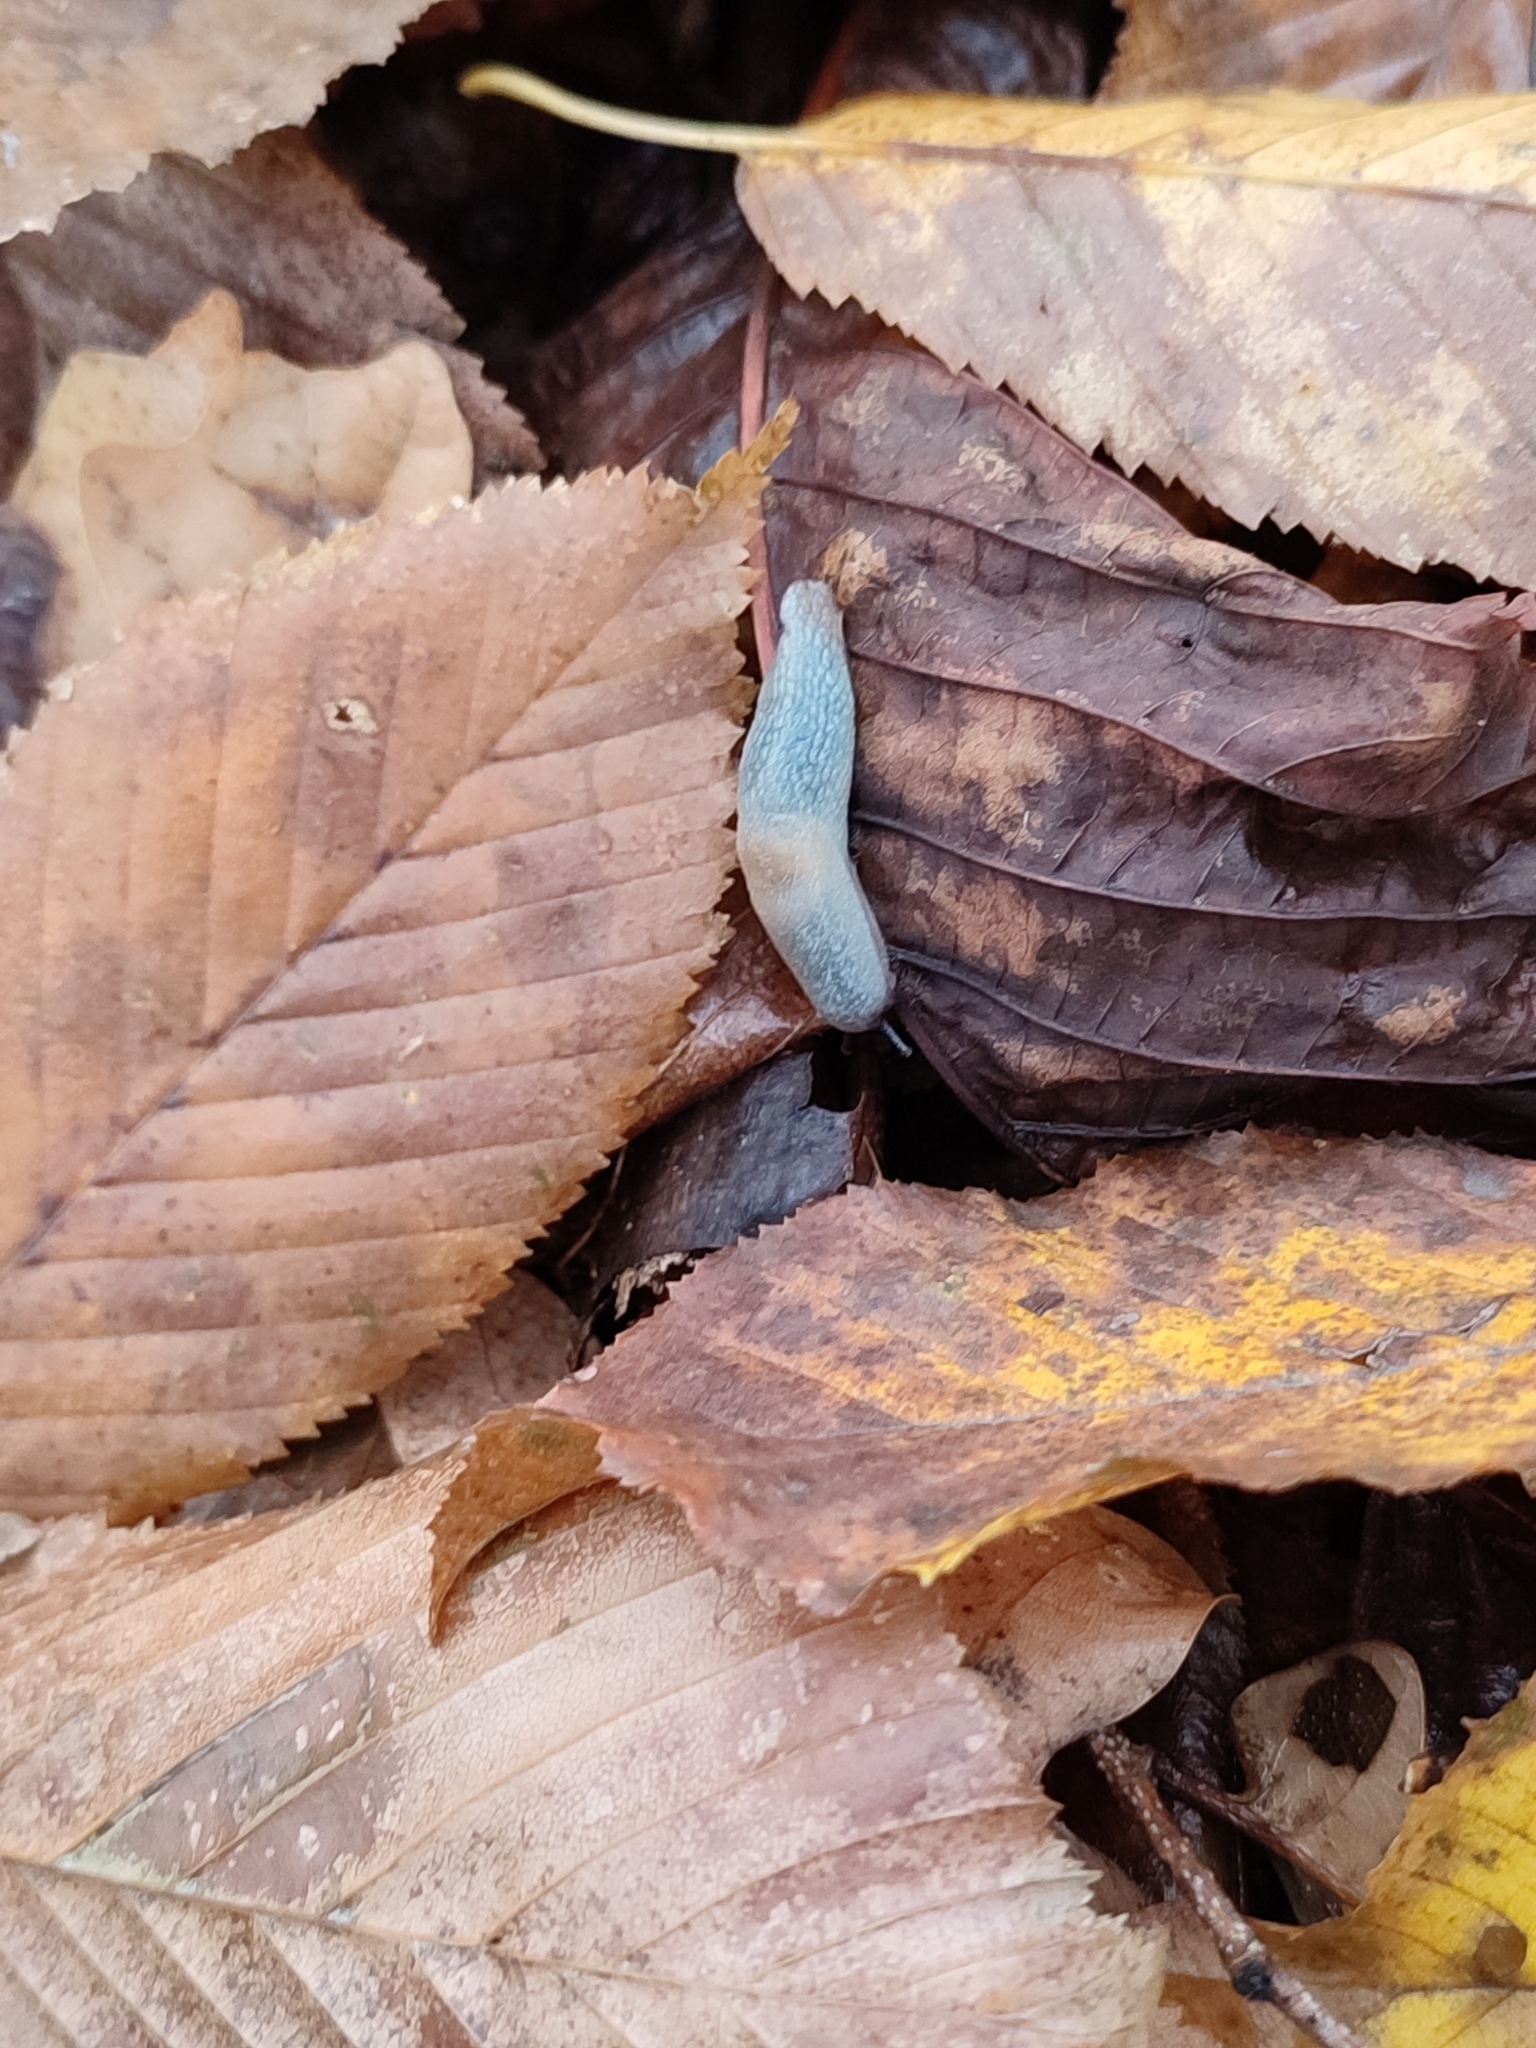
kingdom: Animalia
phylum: Mollusca
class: Gastropoda
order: Stylommatophora
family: Agriolimacidae
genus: Krynickillus
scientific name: Krynickillus melanocephalus
